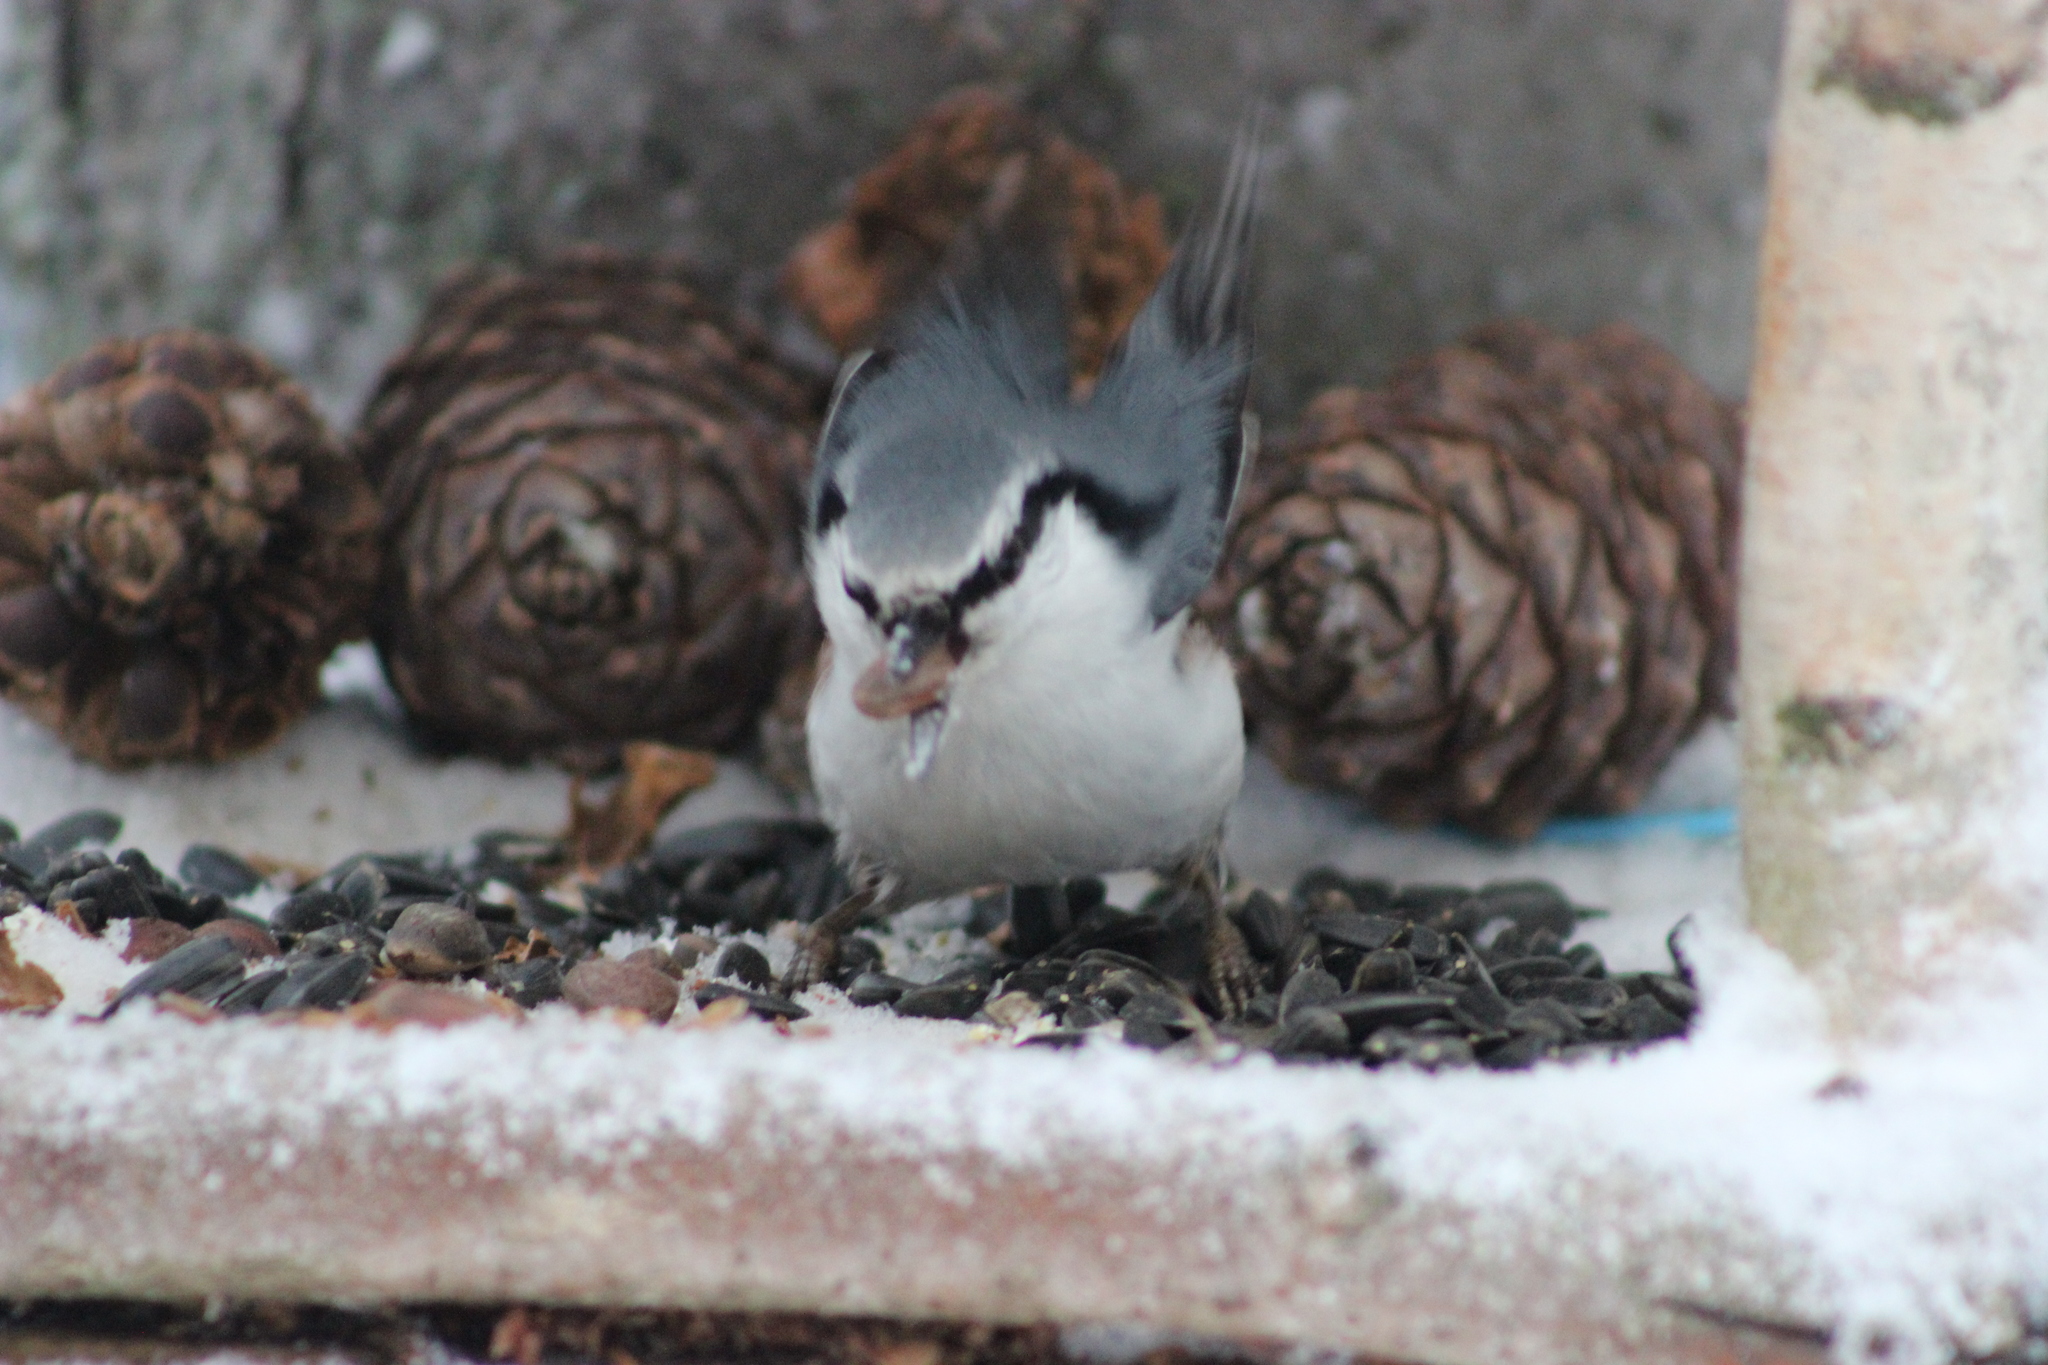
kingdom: Animalia
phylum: Chordata
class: Aves
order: Passeriformes
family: Sittidae
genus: Sitta
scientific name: Sitta europaea
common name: Eurasian nuthatch
